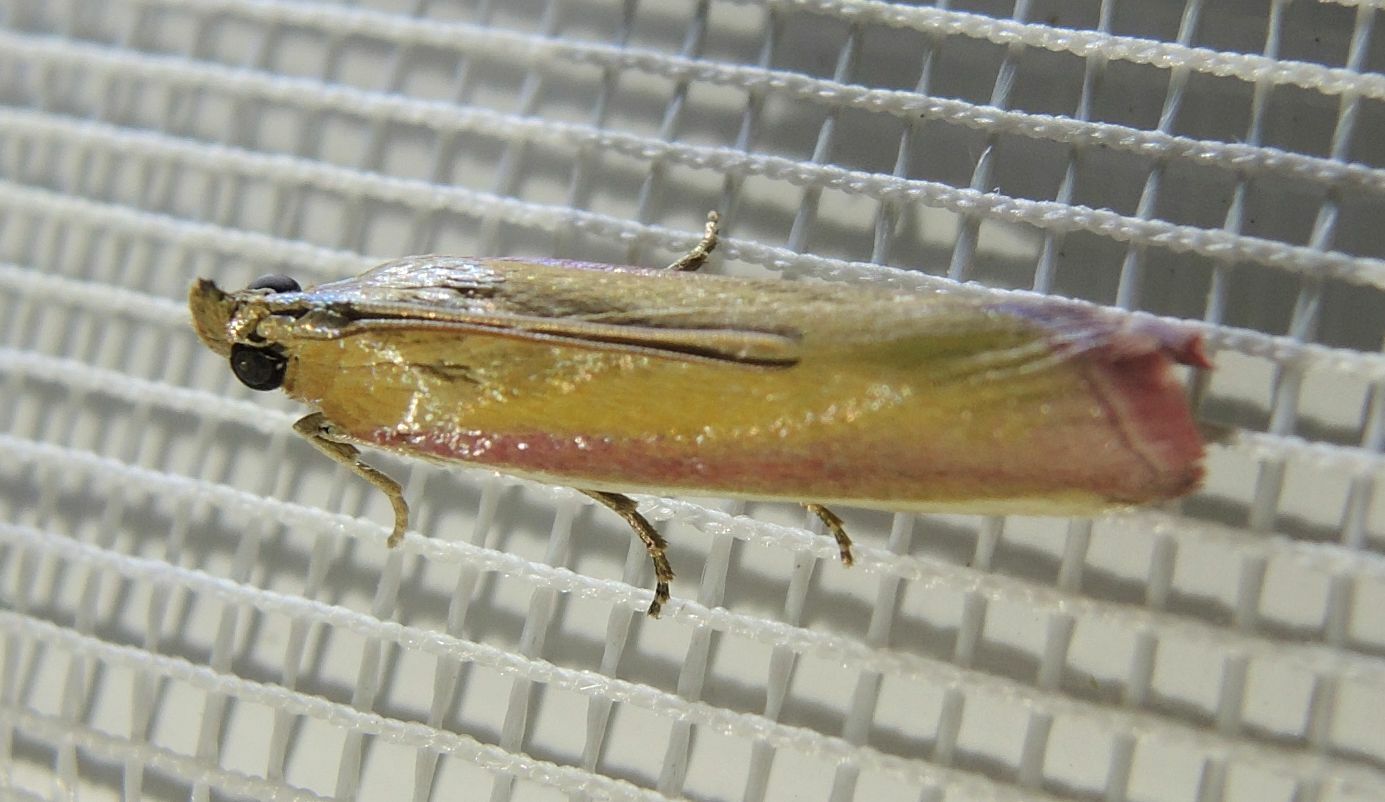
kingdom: Animalia
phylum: Arthropoda
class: Insecta
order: Lepidoptera
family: Pyralidae
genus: Oncocera
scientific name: Oncocera semirubella
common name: Rosy-striped knot-horn
